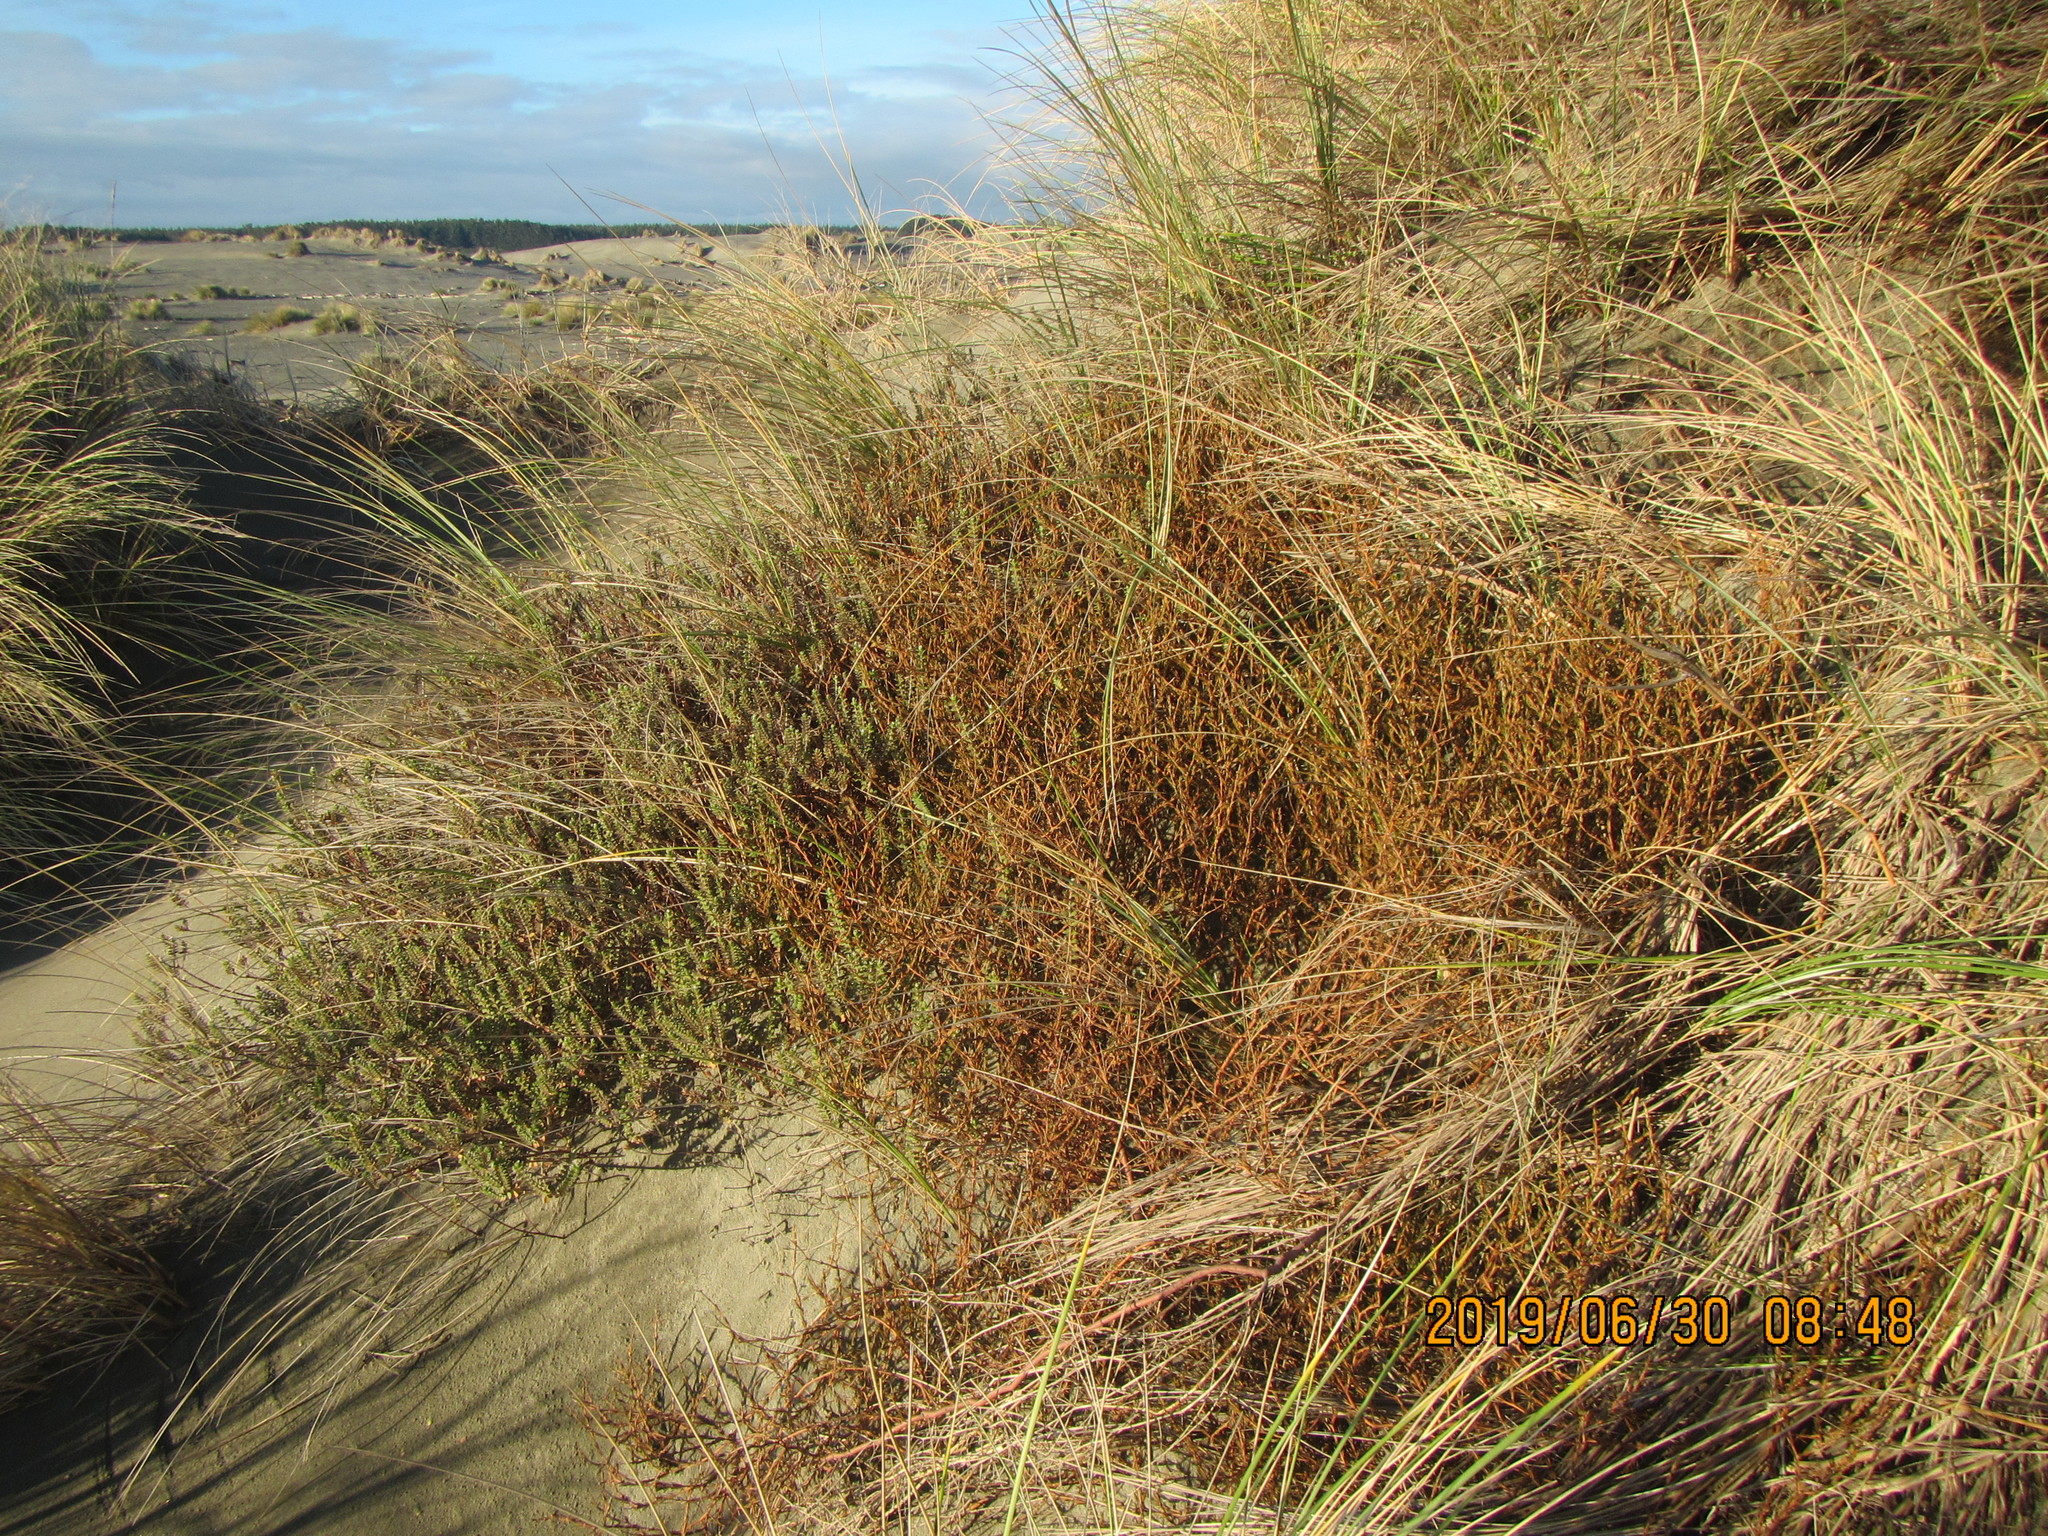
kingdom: Plantae
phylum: Tracheophyta
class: Magnoliopsida
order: Gentianales
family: Rubiaceae
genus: Coprosma
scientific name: Coprosma acerosa
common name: Sand coprosma
